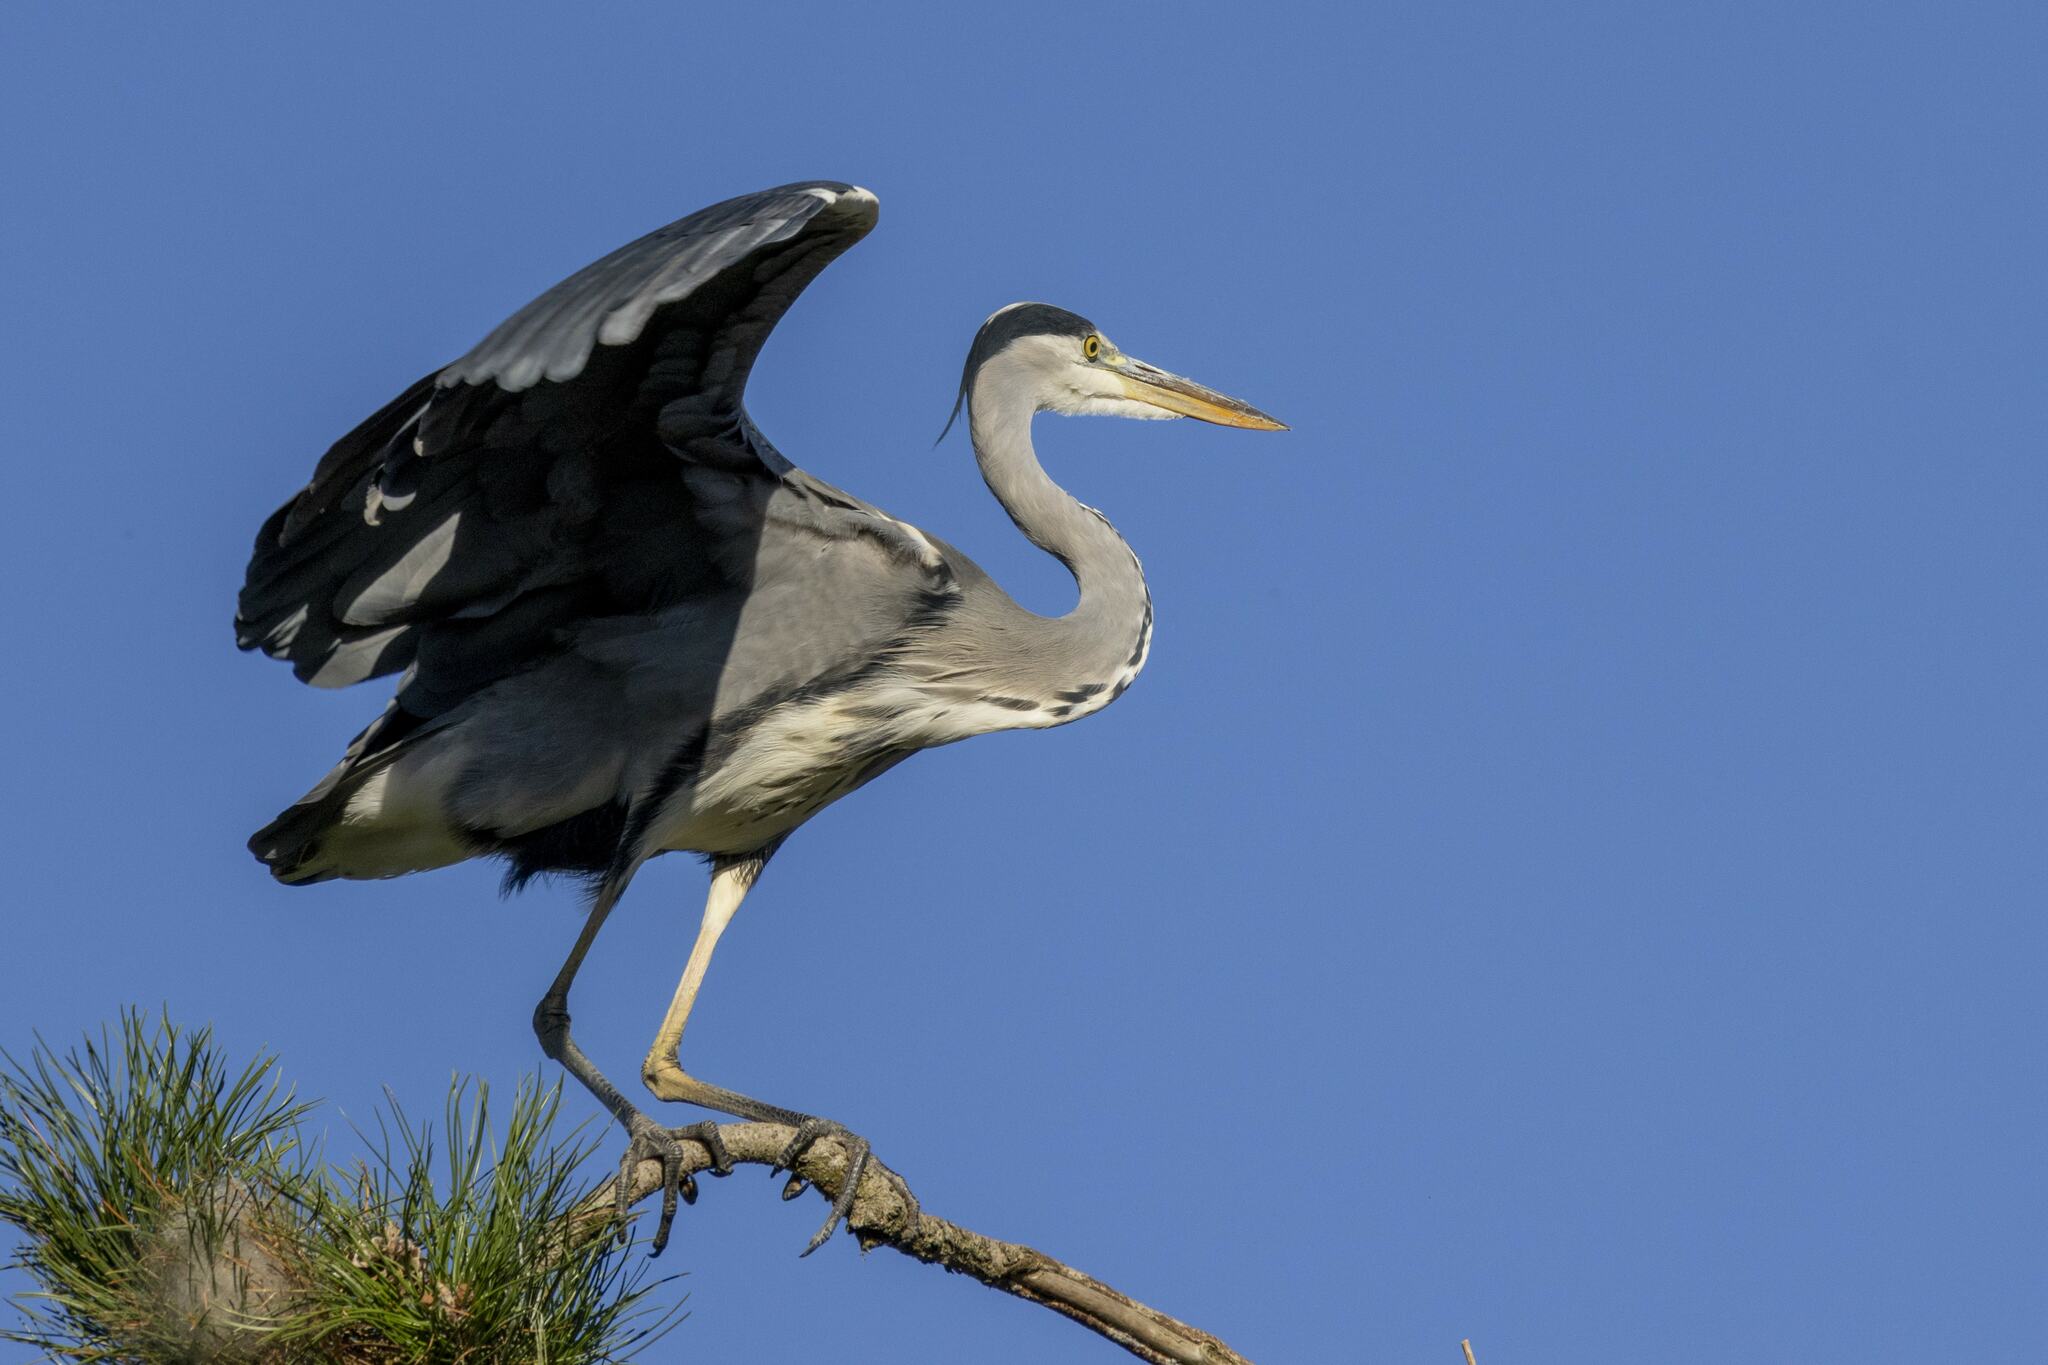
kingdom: Animalia
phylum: Chordata
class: Aves
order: Pelecaniformes
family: Ardeidae
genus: Ardea
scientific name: Ardea cinerea
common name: Grey heron
